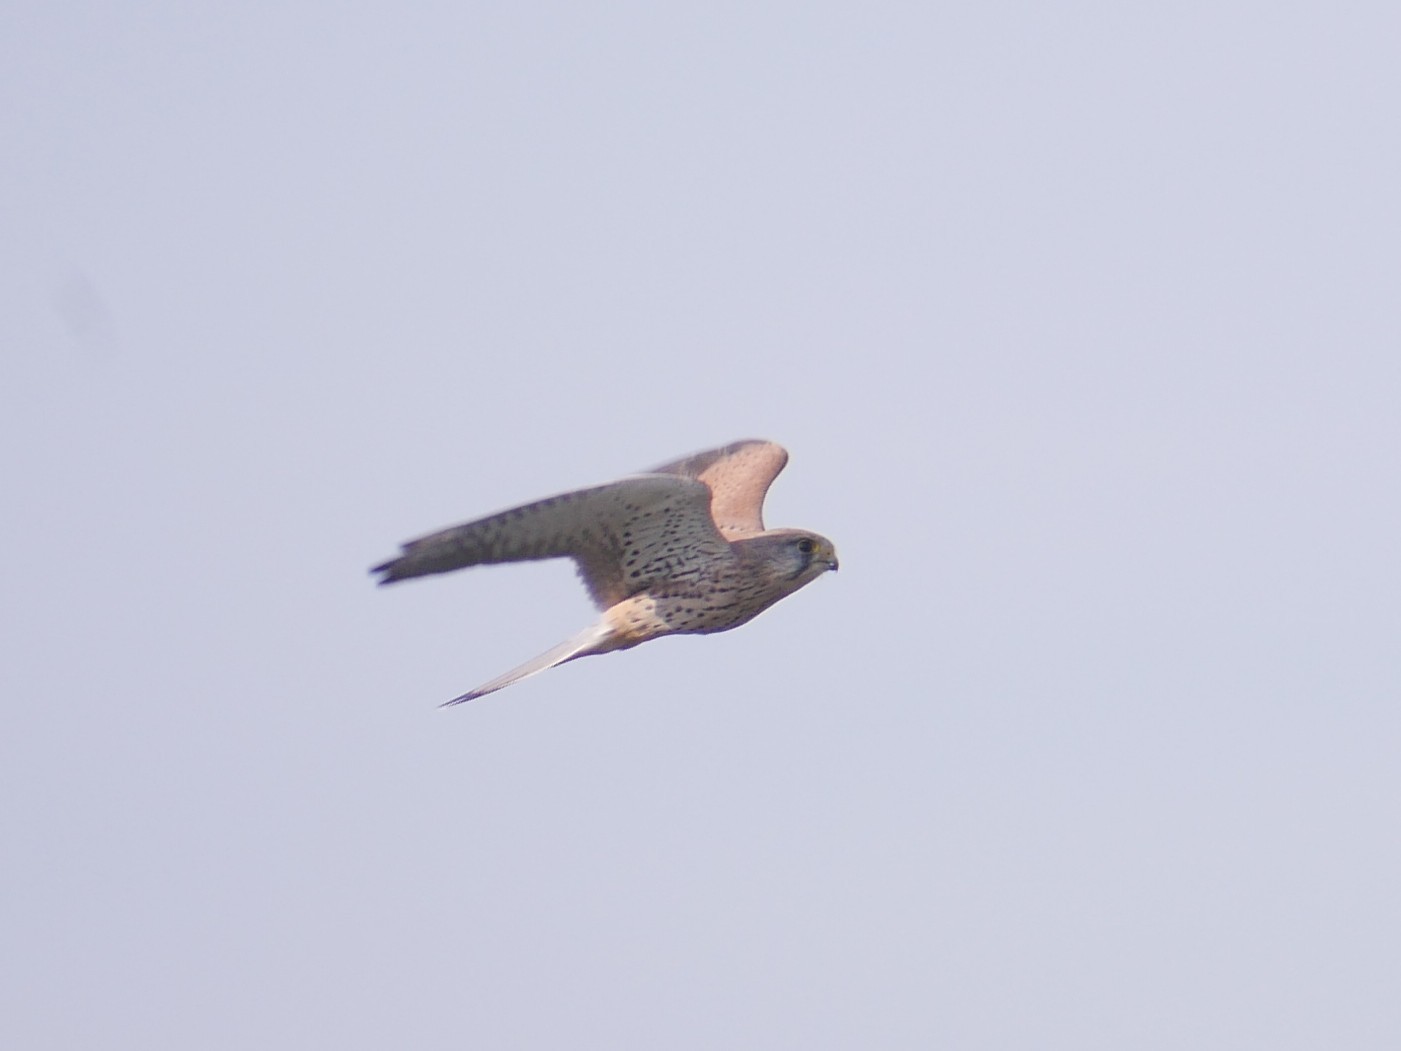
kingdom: Animalia
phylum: Chordata
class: Aves
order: Falconiformes
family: Falconidae
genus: Falco
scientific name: Falco tinnunculus
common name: Common kestrel
